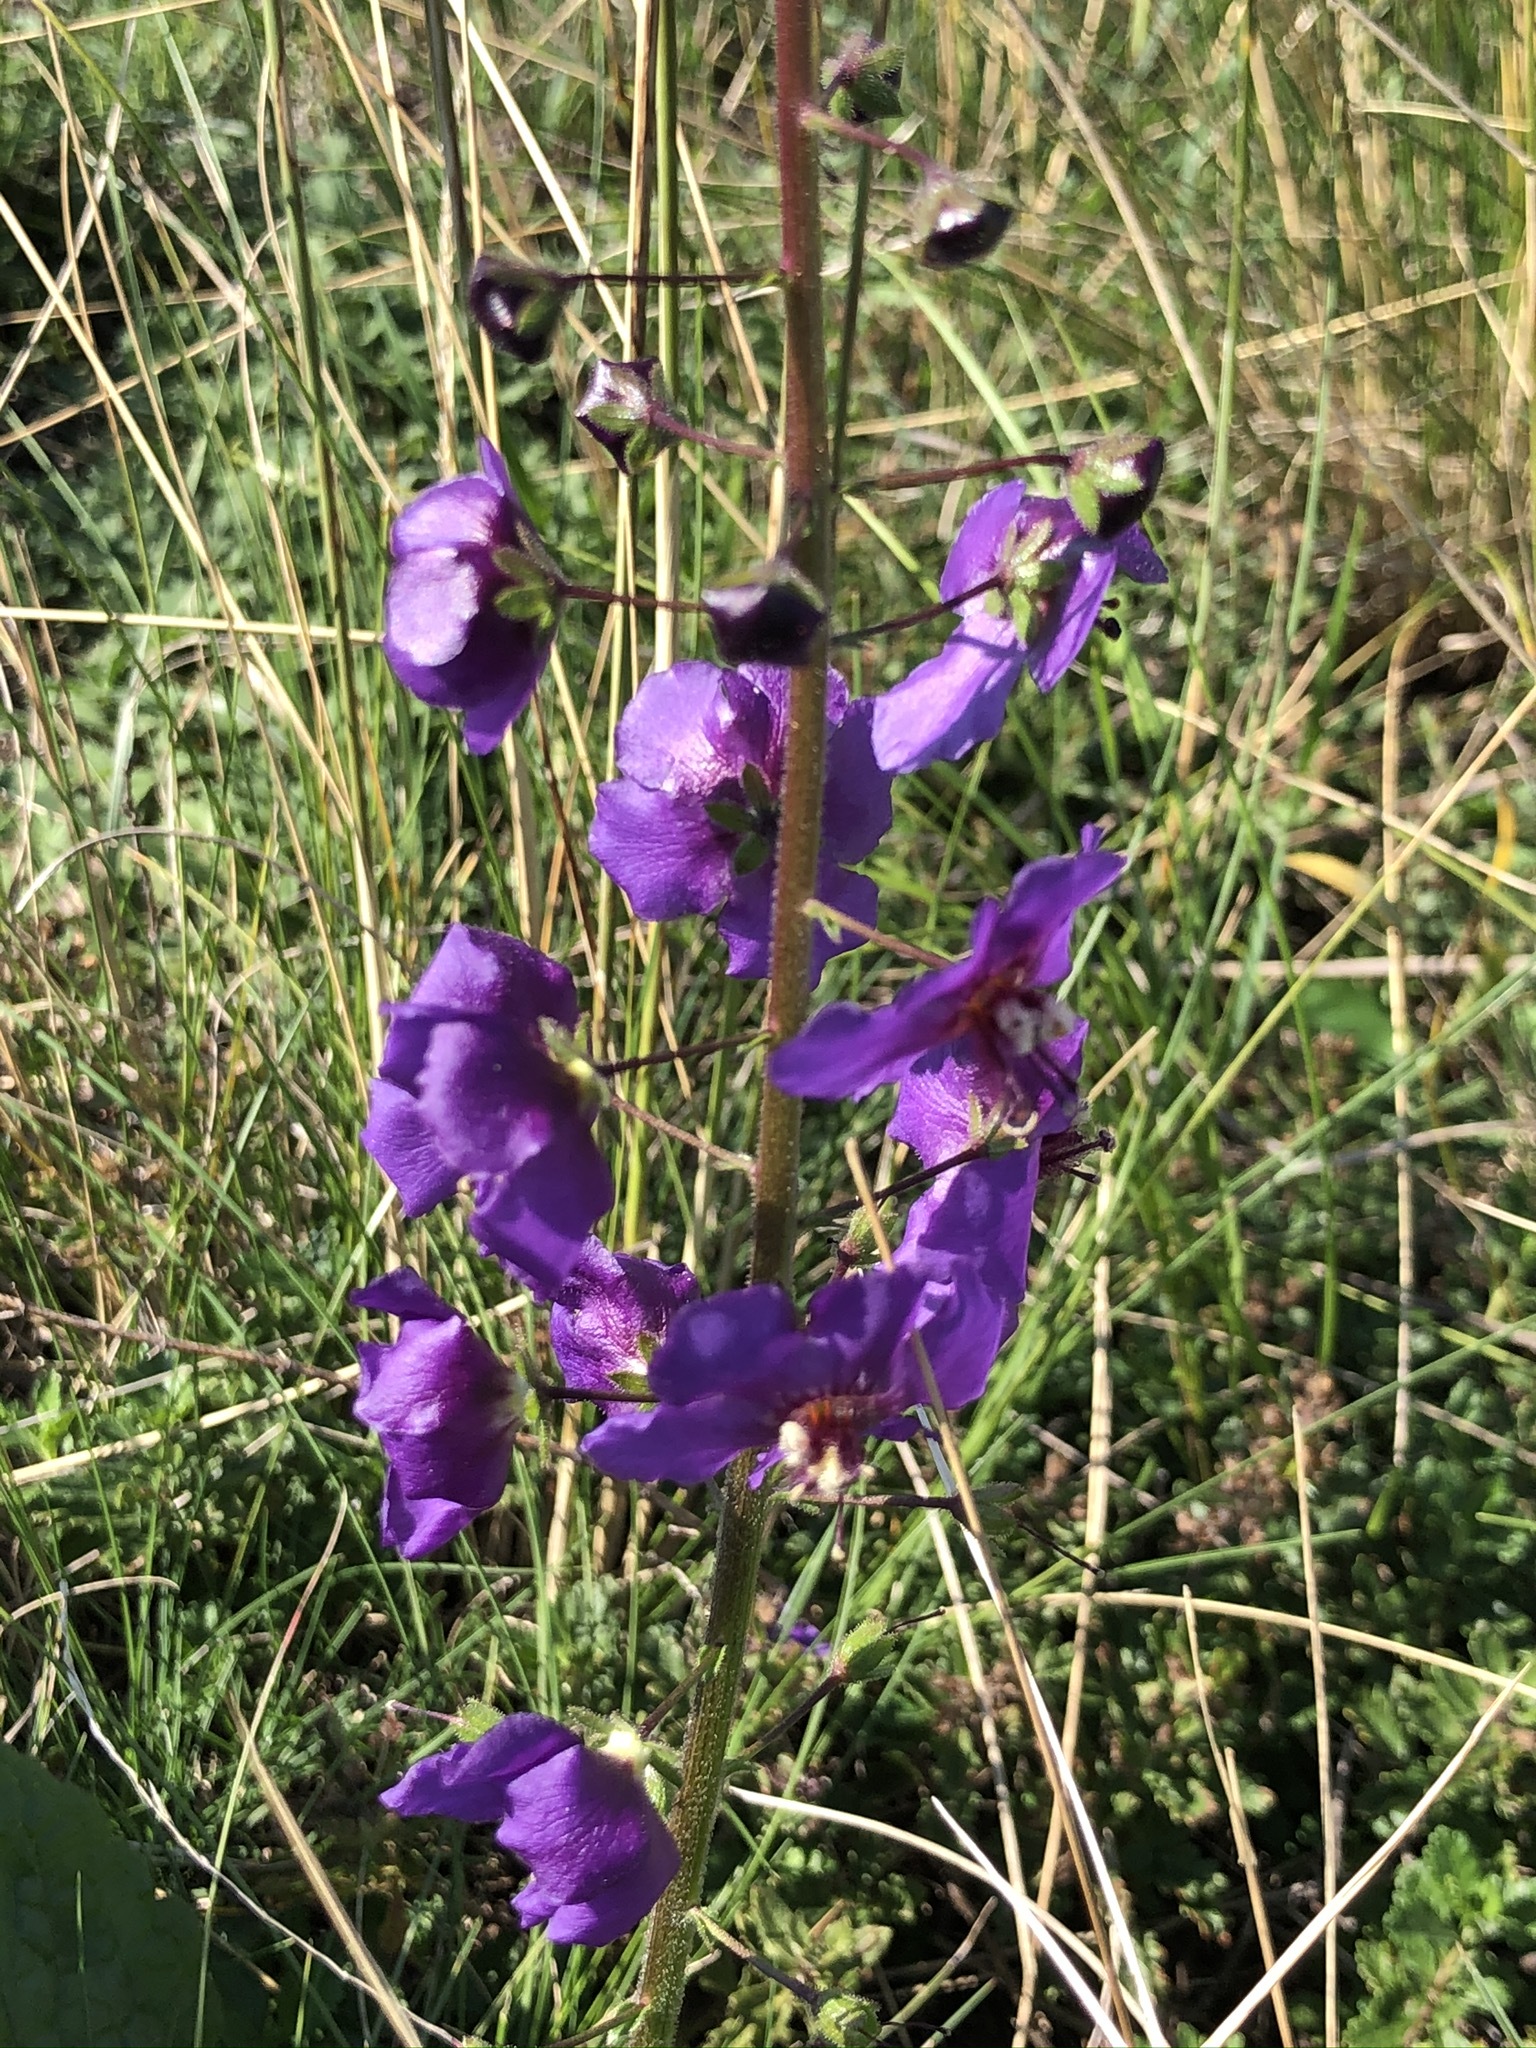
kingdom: Plantae
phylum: Tracheophyta
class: Magnoliopsida
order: Lamiales
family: Scrophulariaceae
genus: Verbascum
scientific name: Verbascum phoeniceum
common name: Purple mullein
